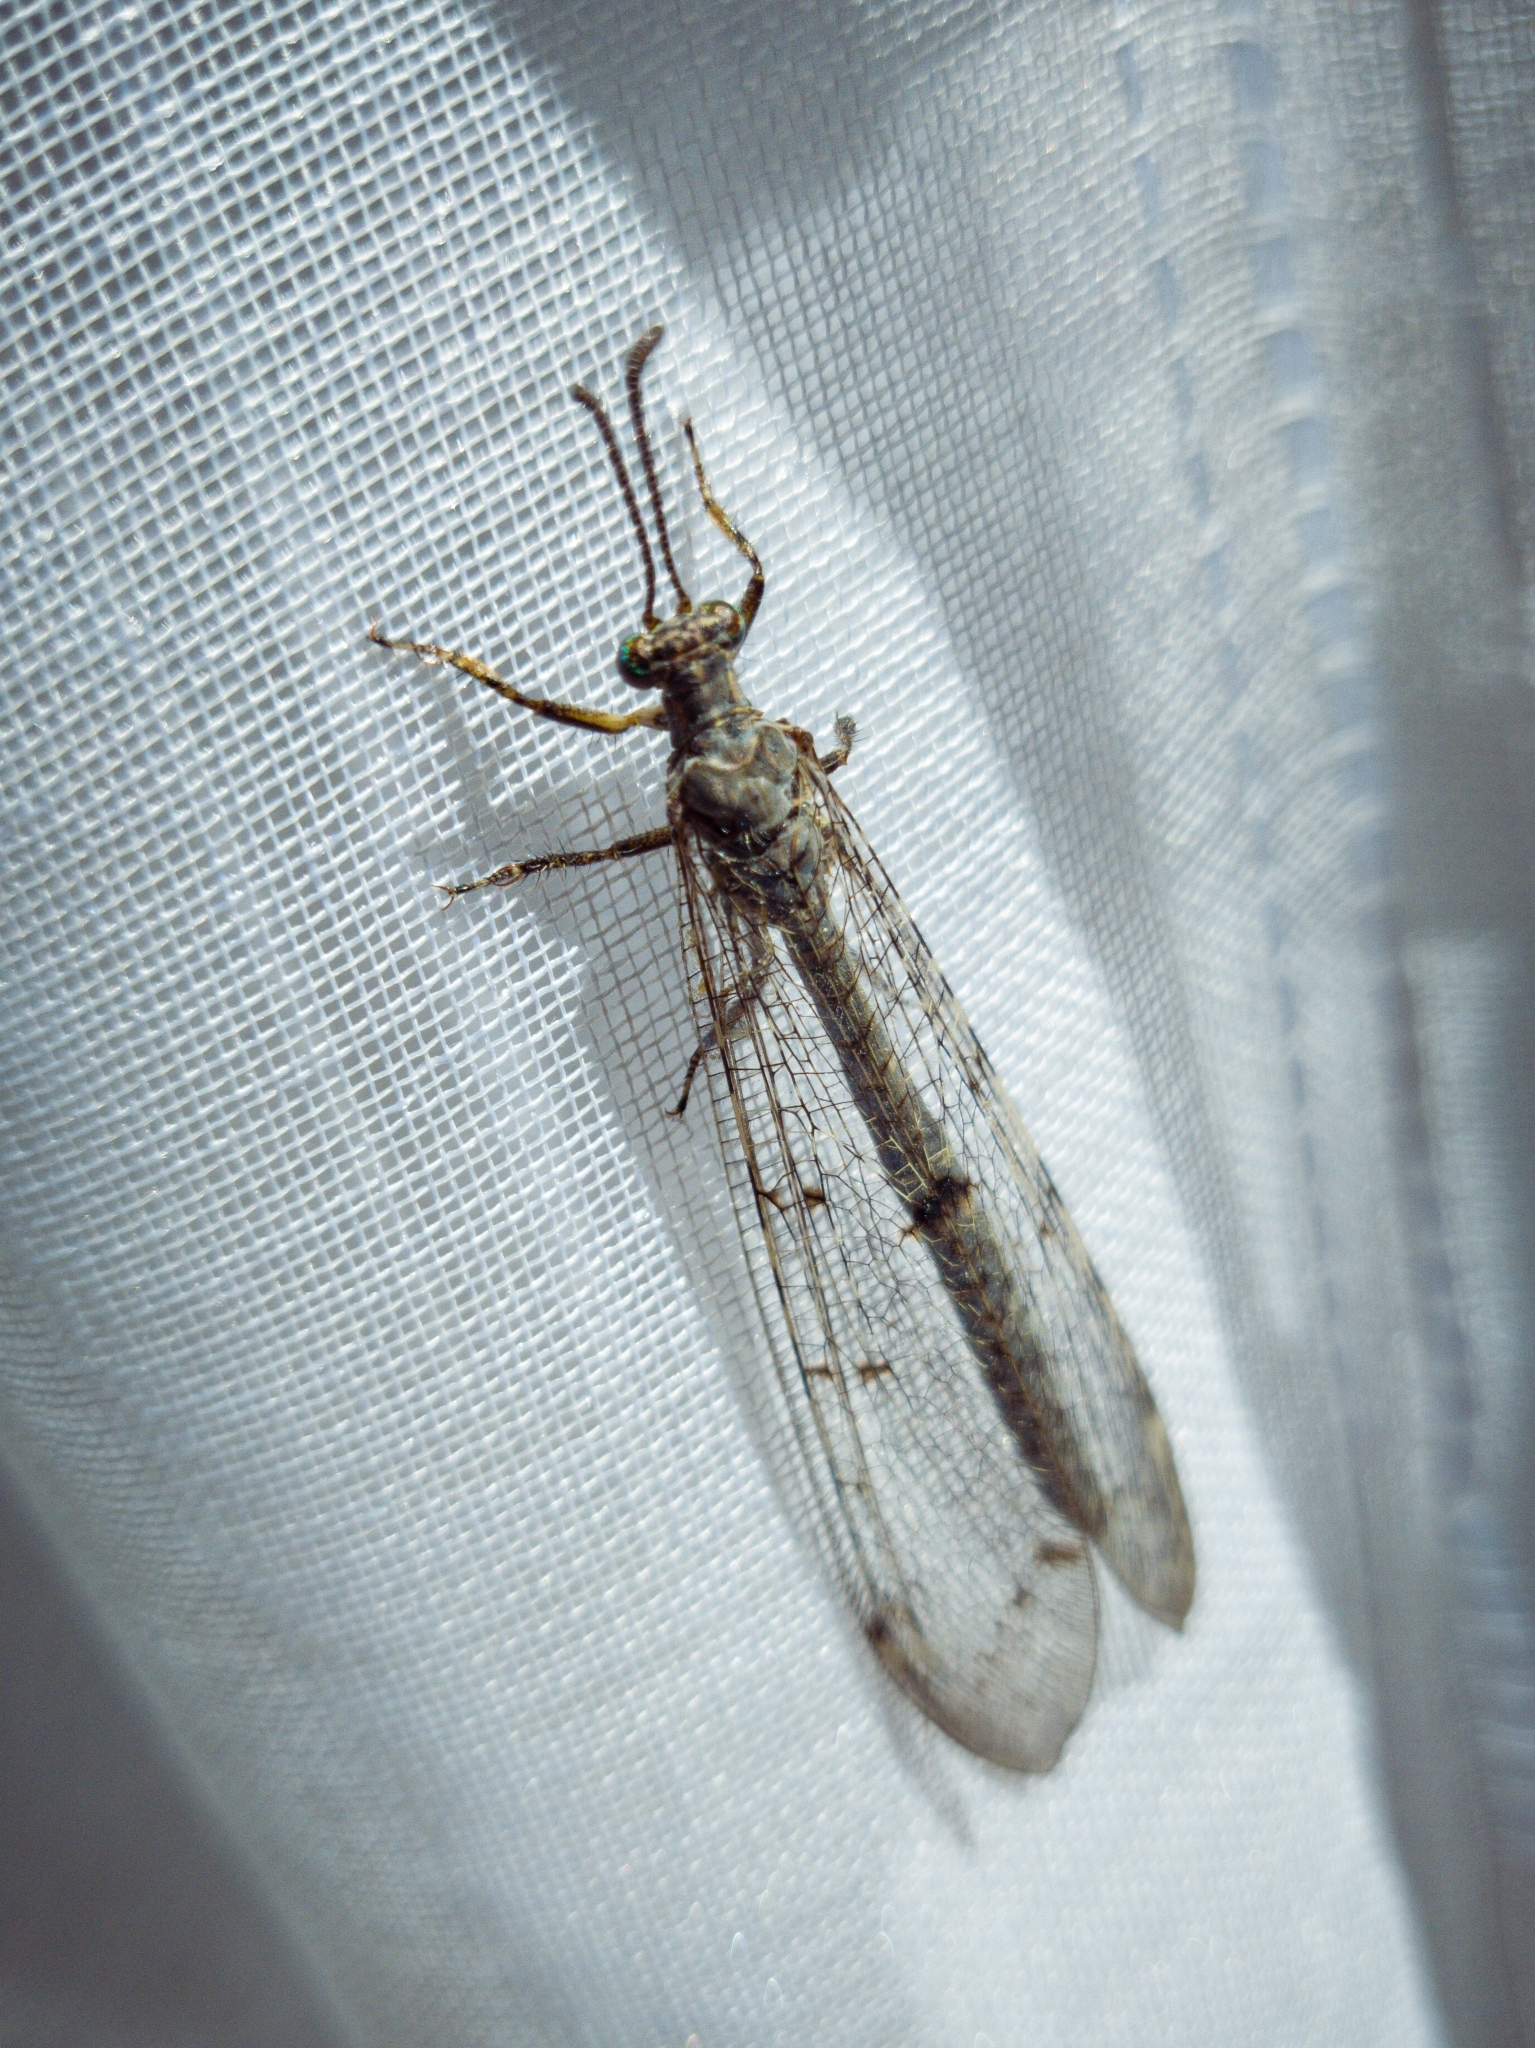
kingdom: Animalia
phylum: Arthropoda
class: Insecta
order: Neuroptera
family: Myrmeleontidae
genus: Distoleon
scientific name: Distoleon tetragrammicus
